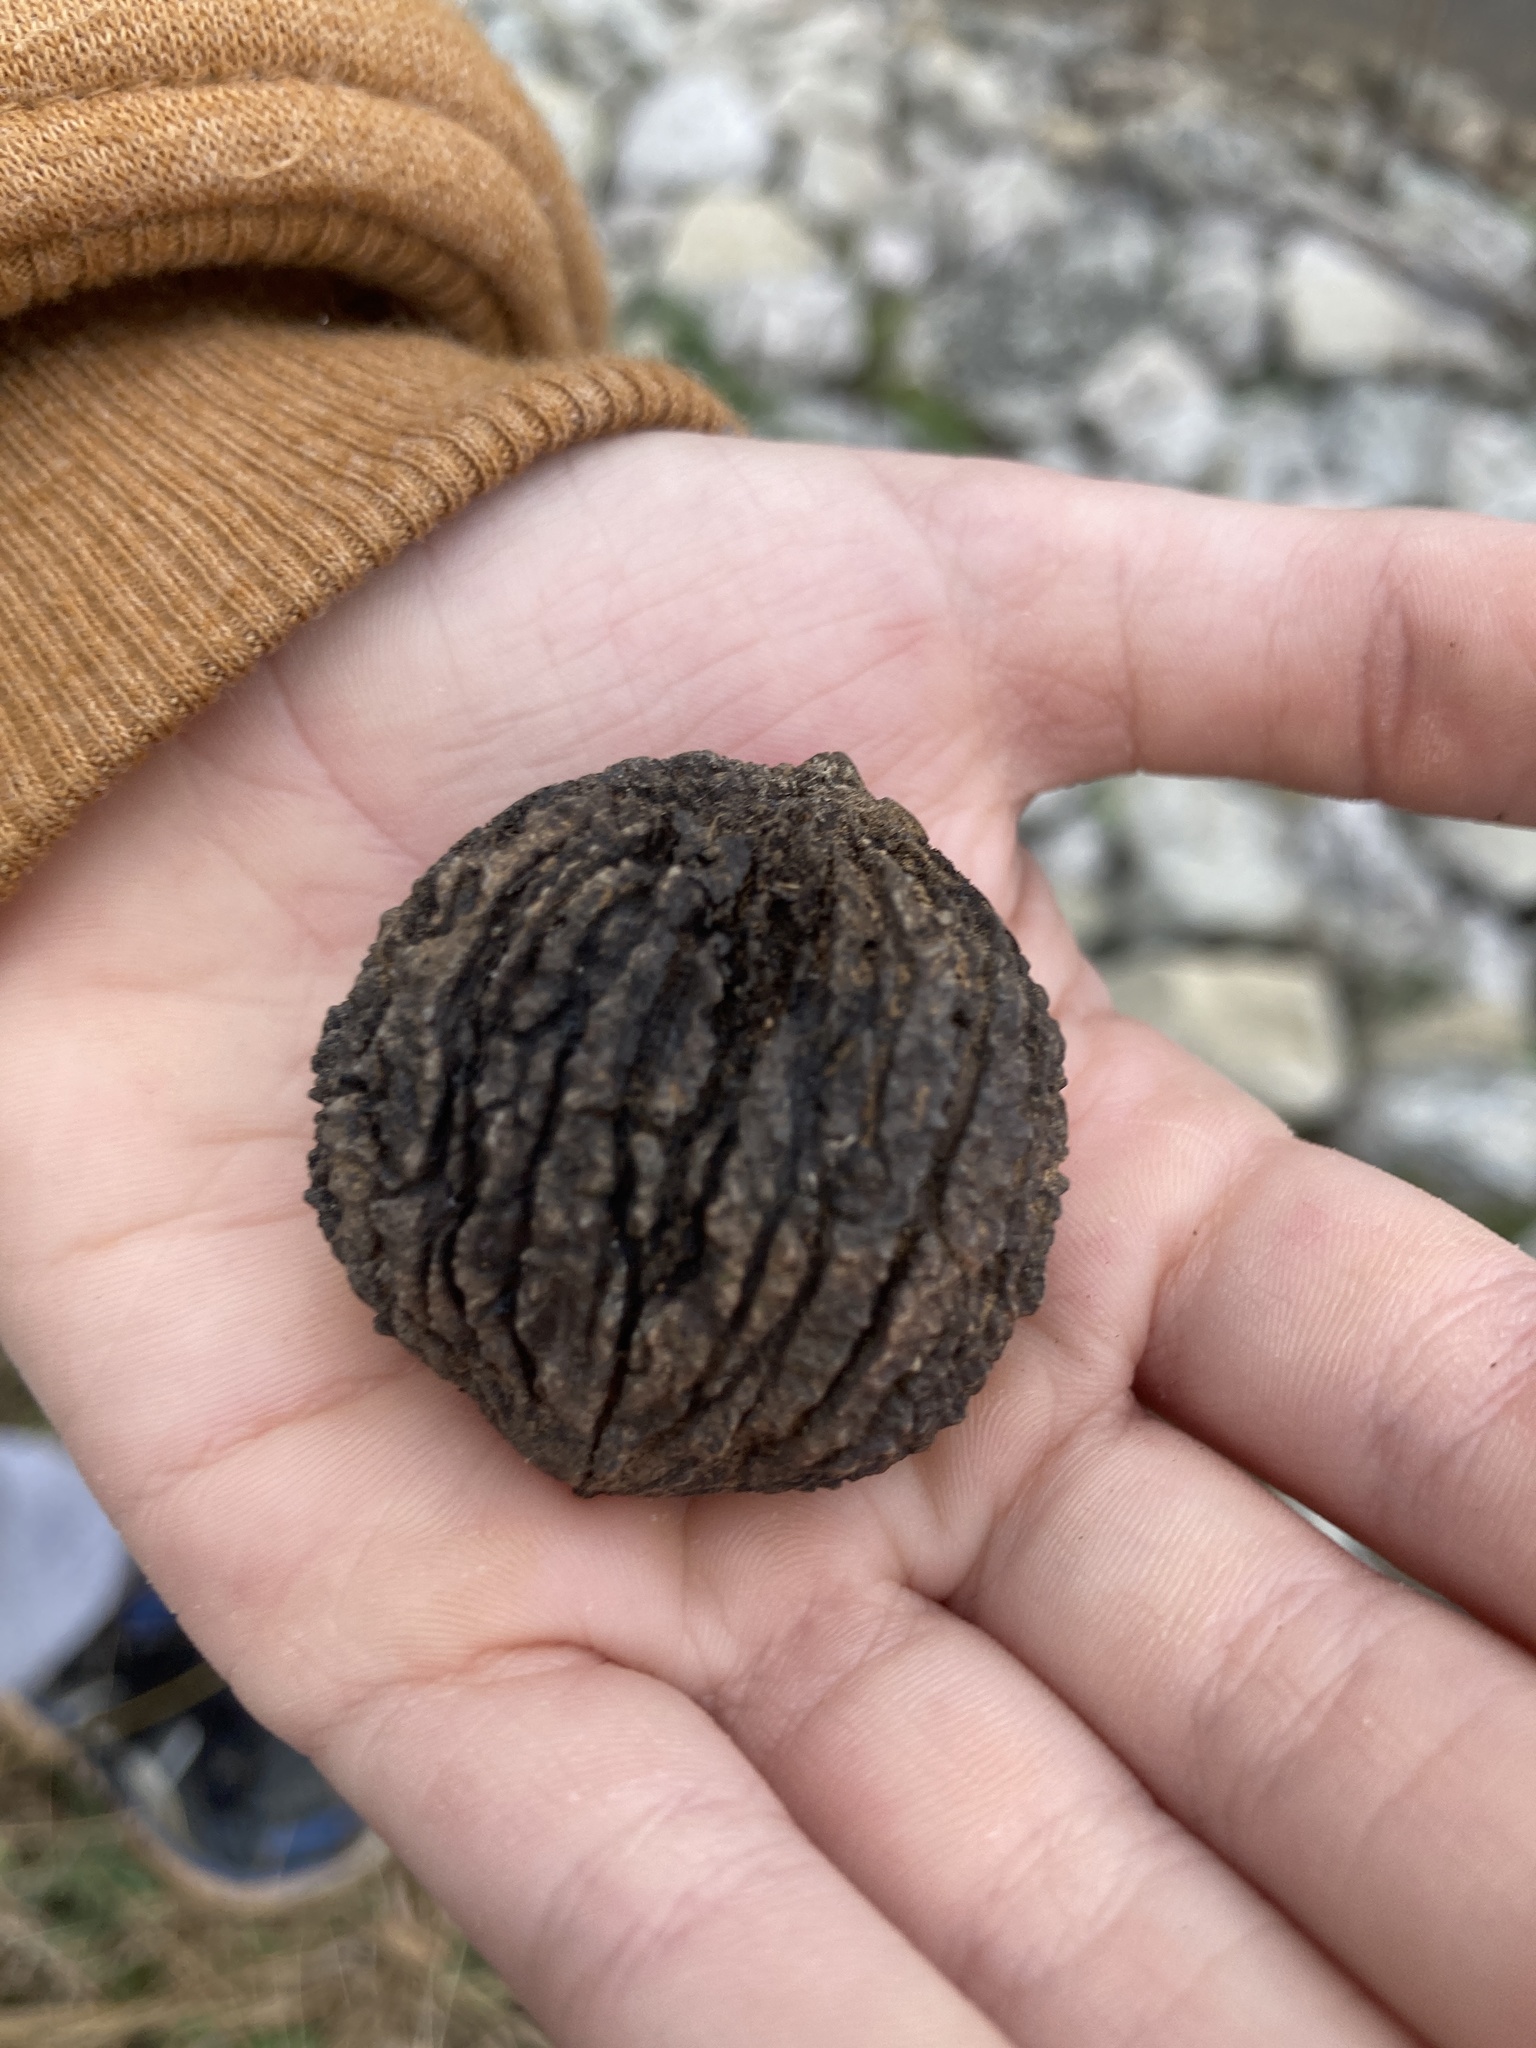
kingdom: Plantae
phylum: Tracheophyta
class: Magnoliopsida
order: Fagales
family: Juglandaceae
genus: Juglans
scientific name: Juglans nigra
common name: Black walnut
